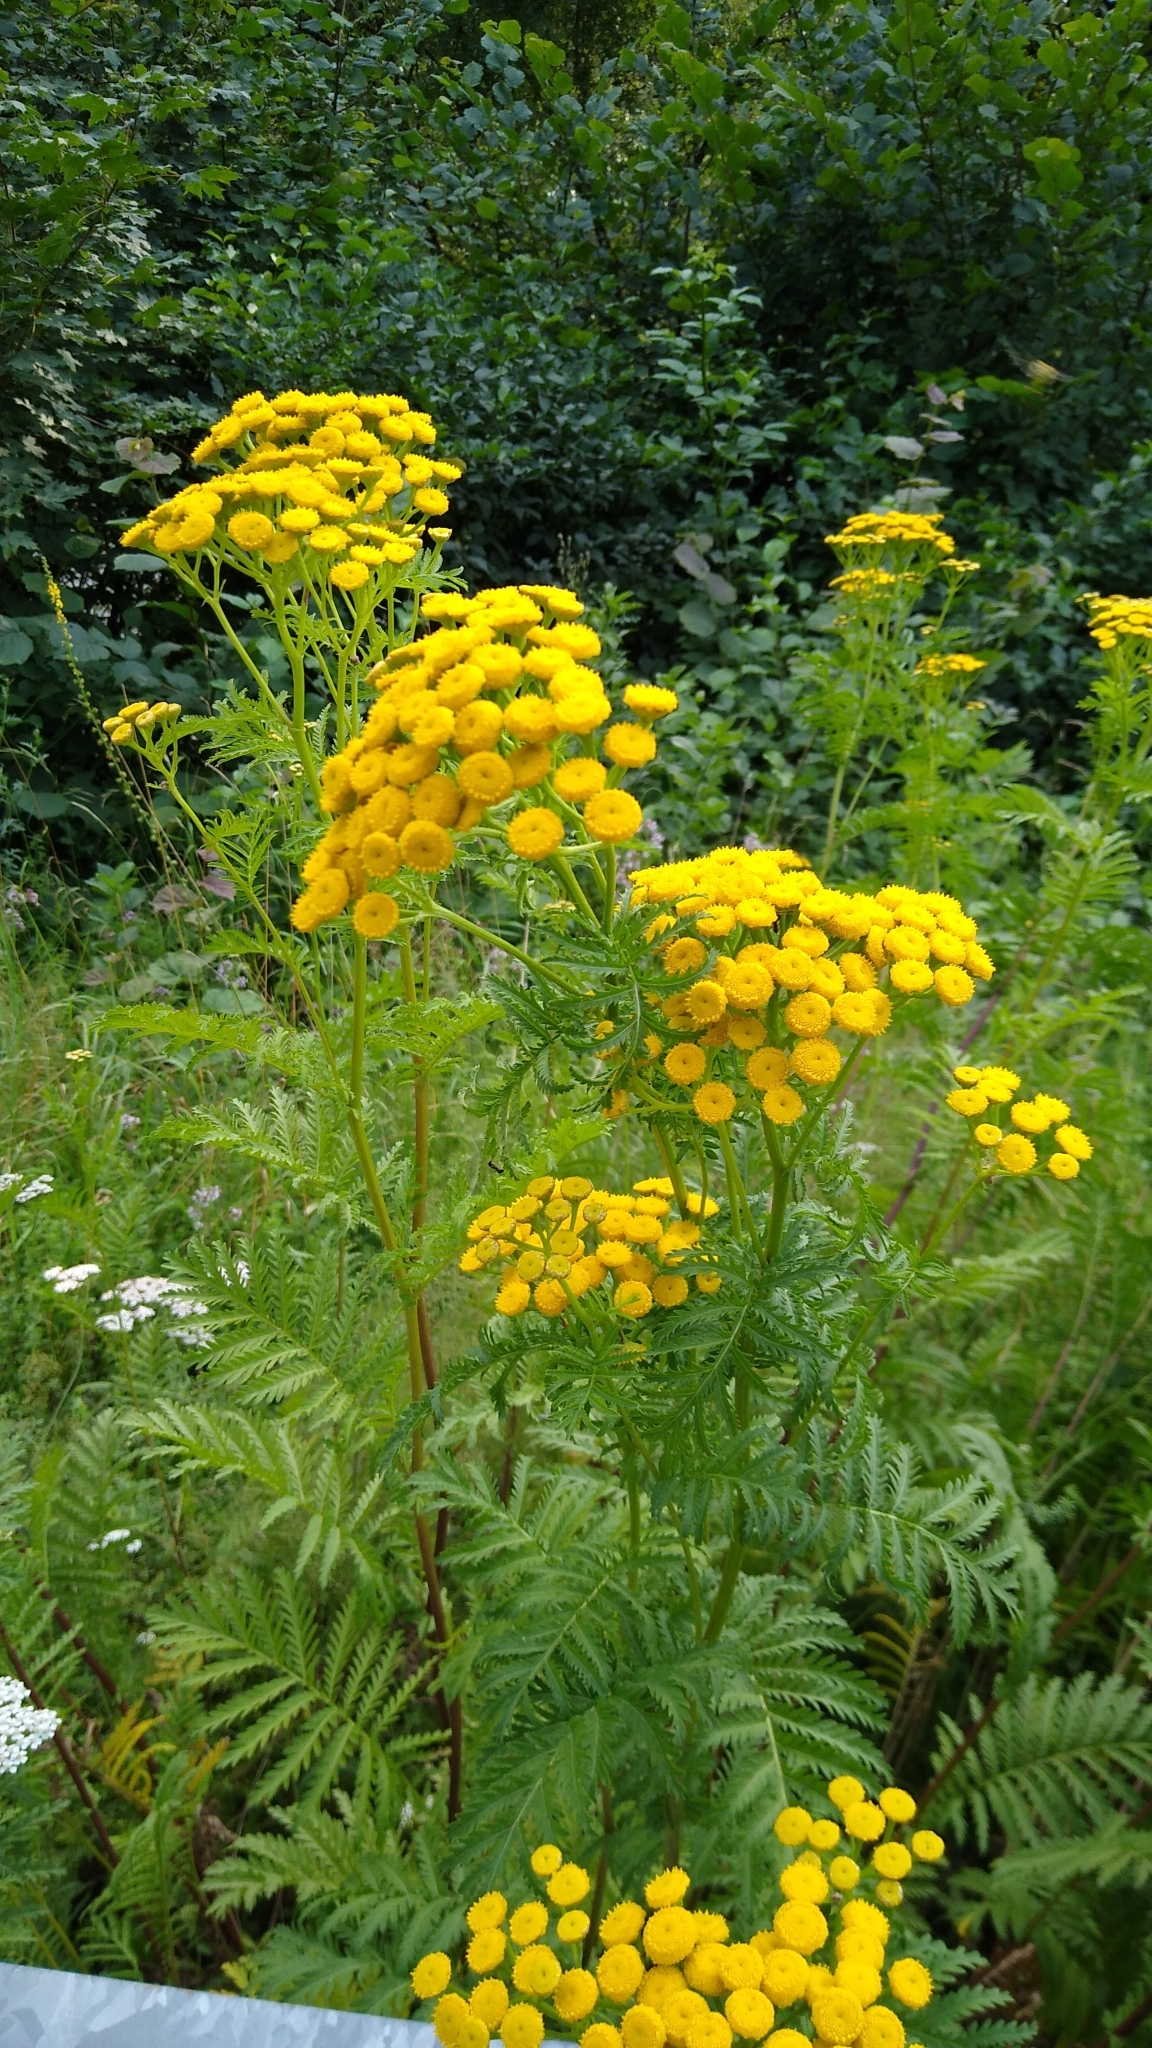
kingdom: Plantae
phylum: Tracheophyta
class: Magnoliopsida
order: Asterales
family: Asteraceae
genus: Tanacetum
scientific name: Tanacetum vulgare
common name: Common tansy
